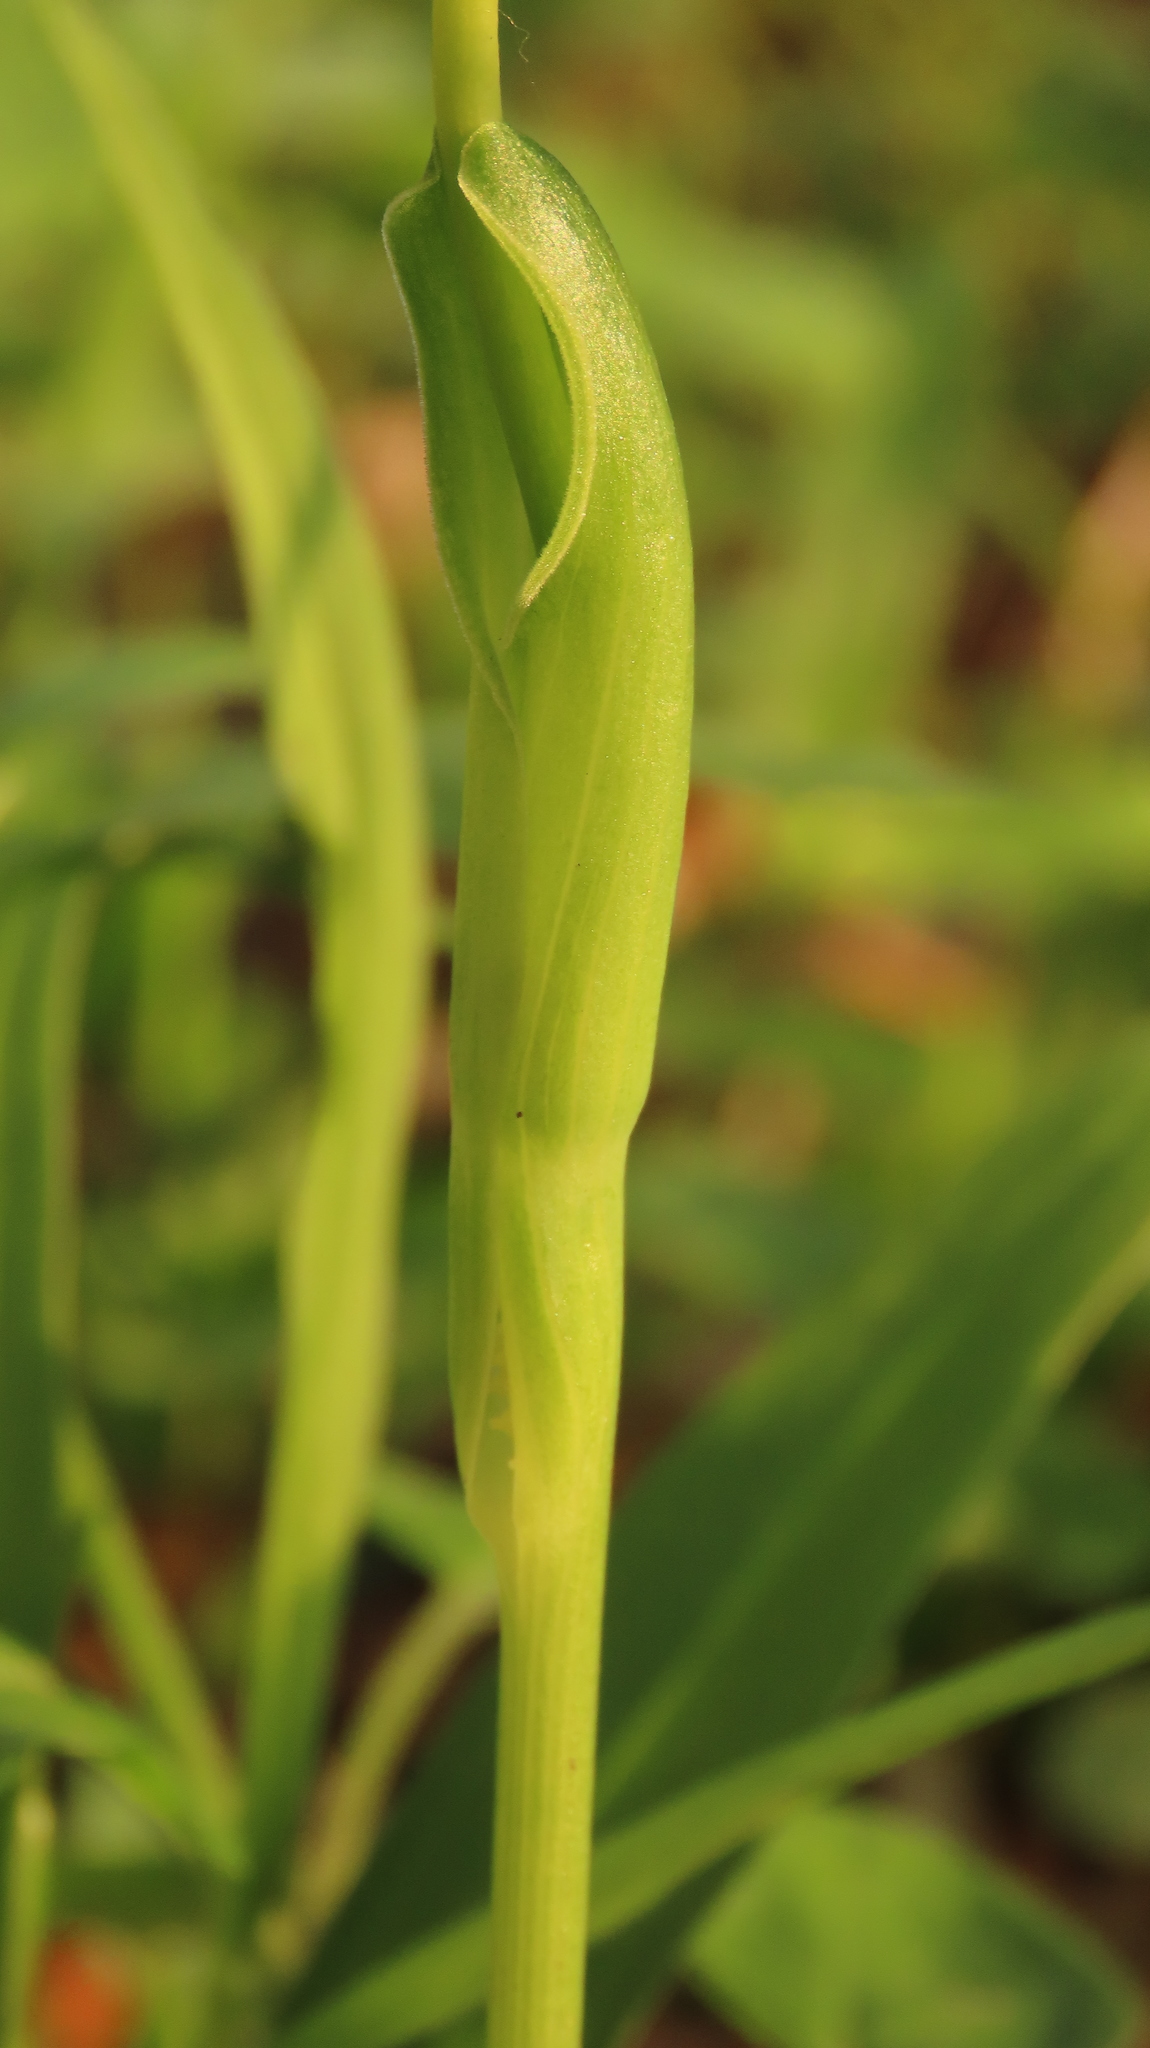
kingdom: Plantae
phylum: Tracheophyta
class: Liliopsida
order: Alismatales
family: Araceae
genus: Pinellia
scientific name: Pinellia ternata
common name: Pinellia
